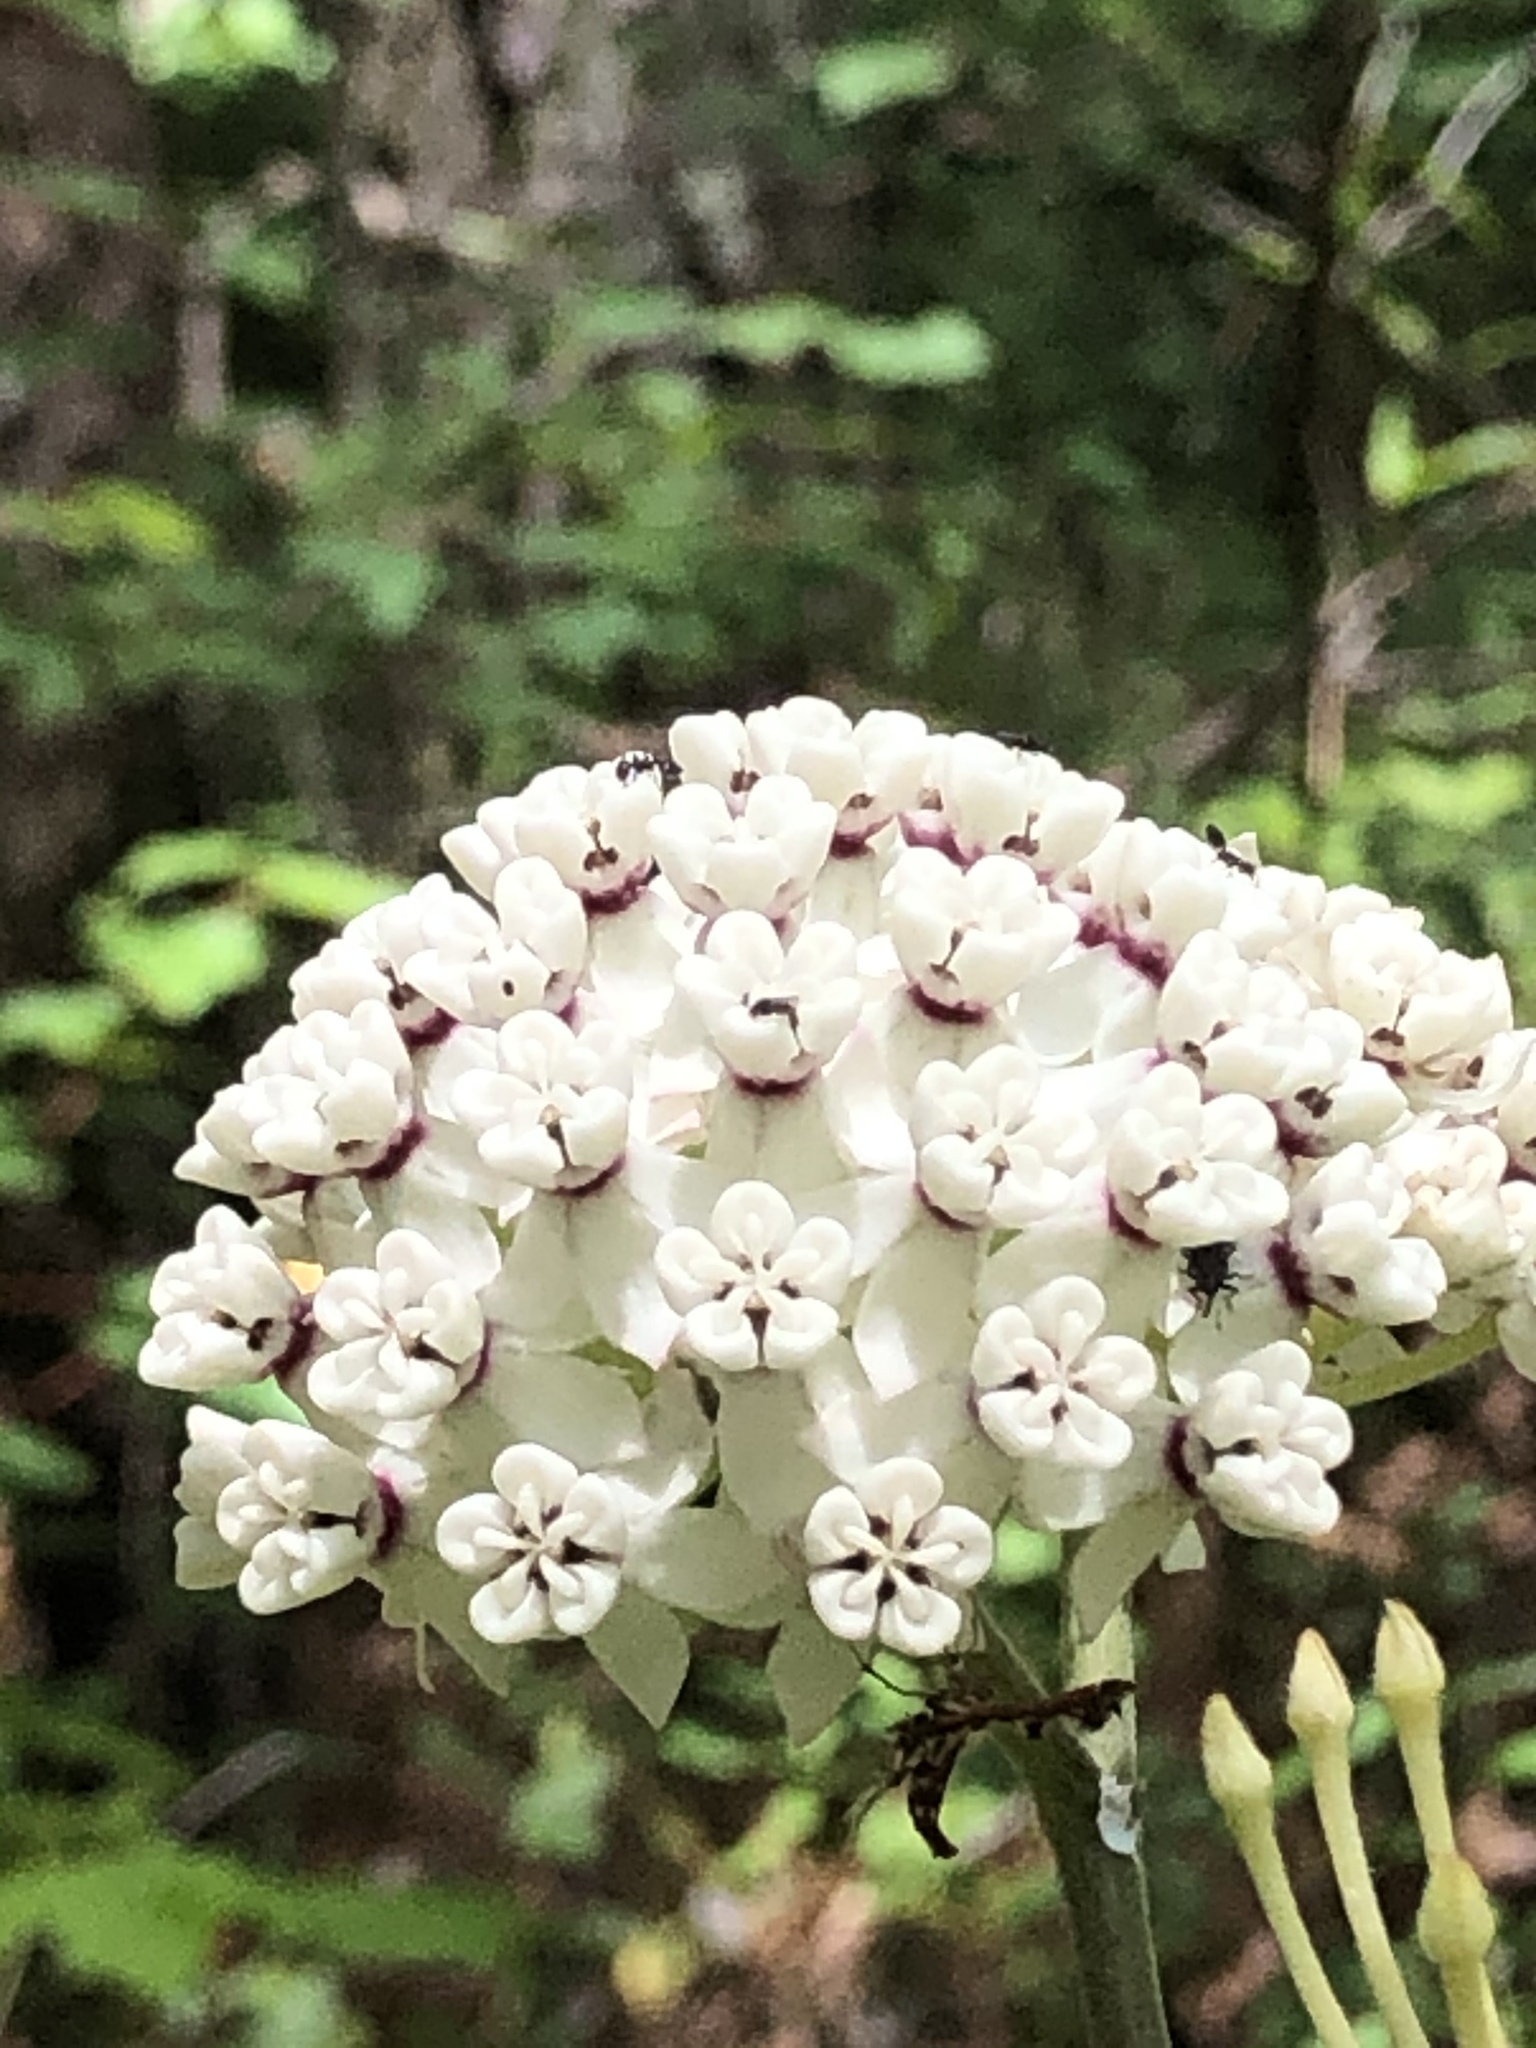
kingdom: Plantae
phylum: Tracheophyta
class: Magnoliopsida
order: Gentianales
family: Apocynaceae
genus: Asclepias
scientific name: Asclepias variegata
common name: Variegated milkweed
